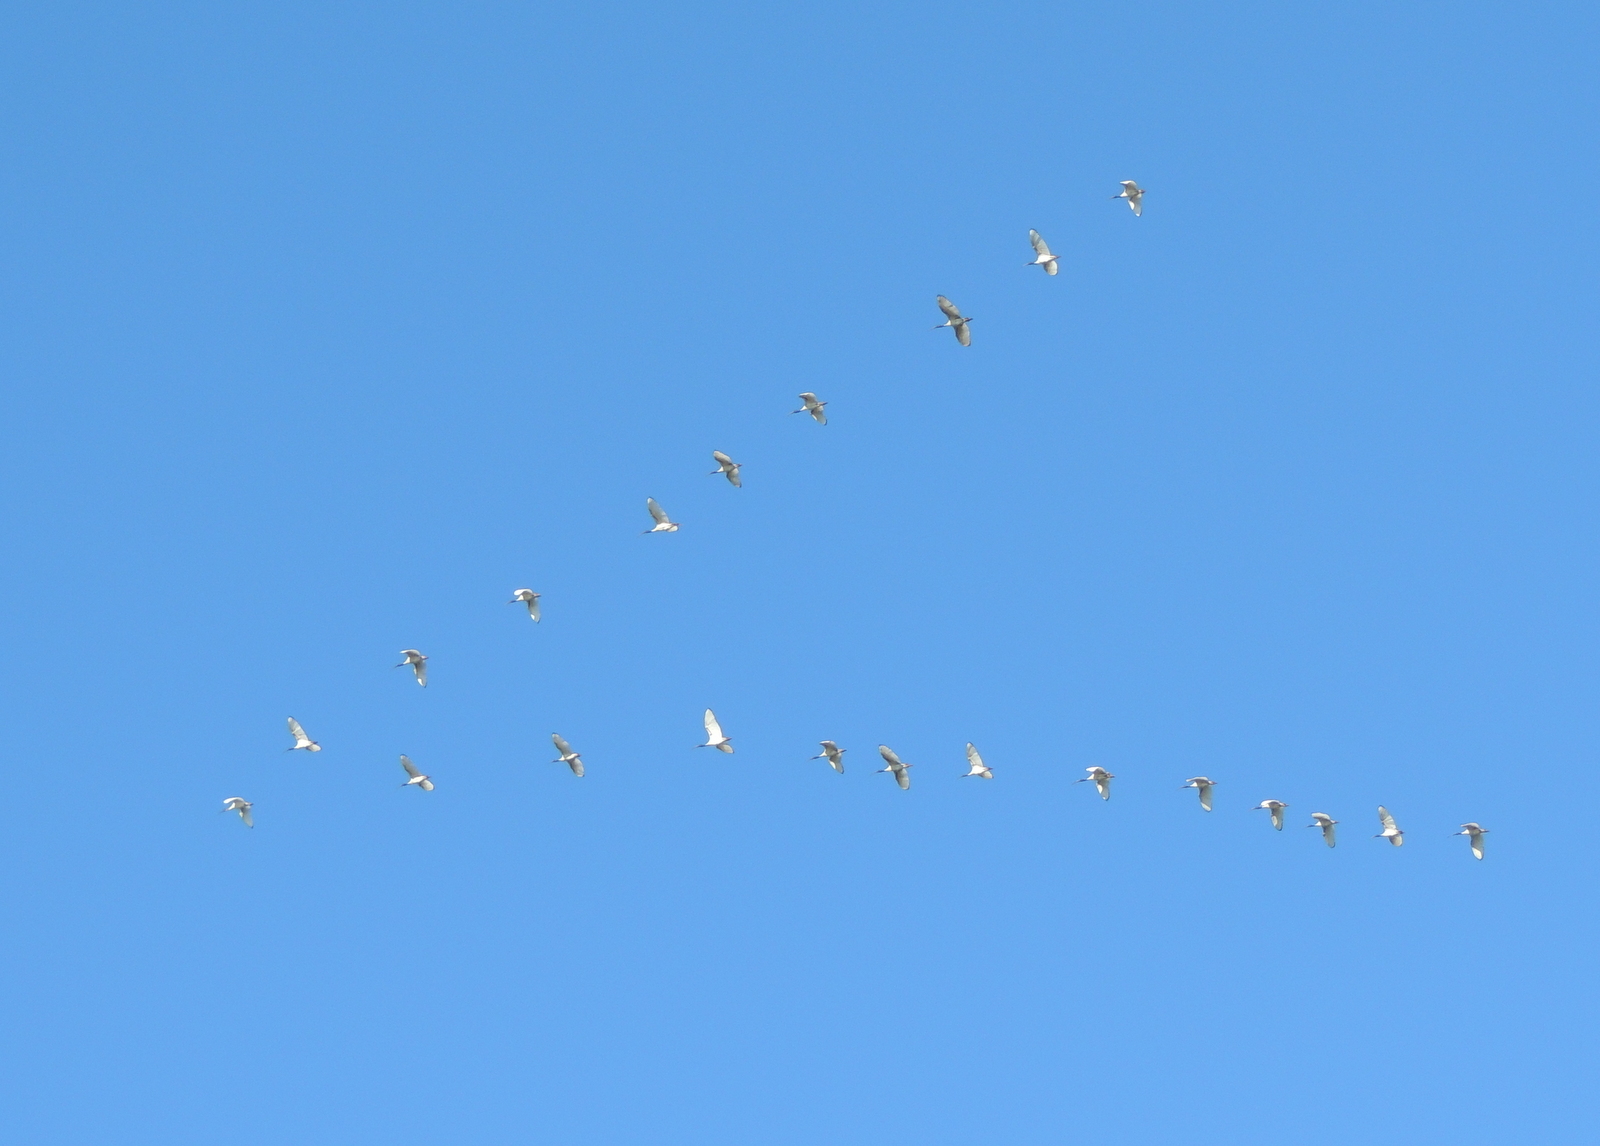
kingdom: Animalia
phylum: Chordata
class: Aves
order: Pelecaniformes
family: Threskiornithidae
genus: Threskiornis
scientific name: Threskiornis molucca
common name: Australian white ibis
